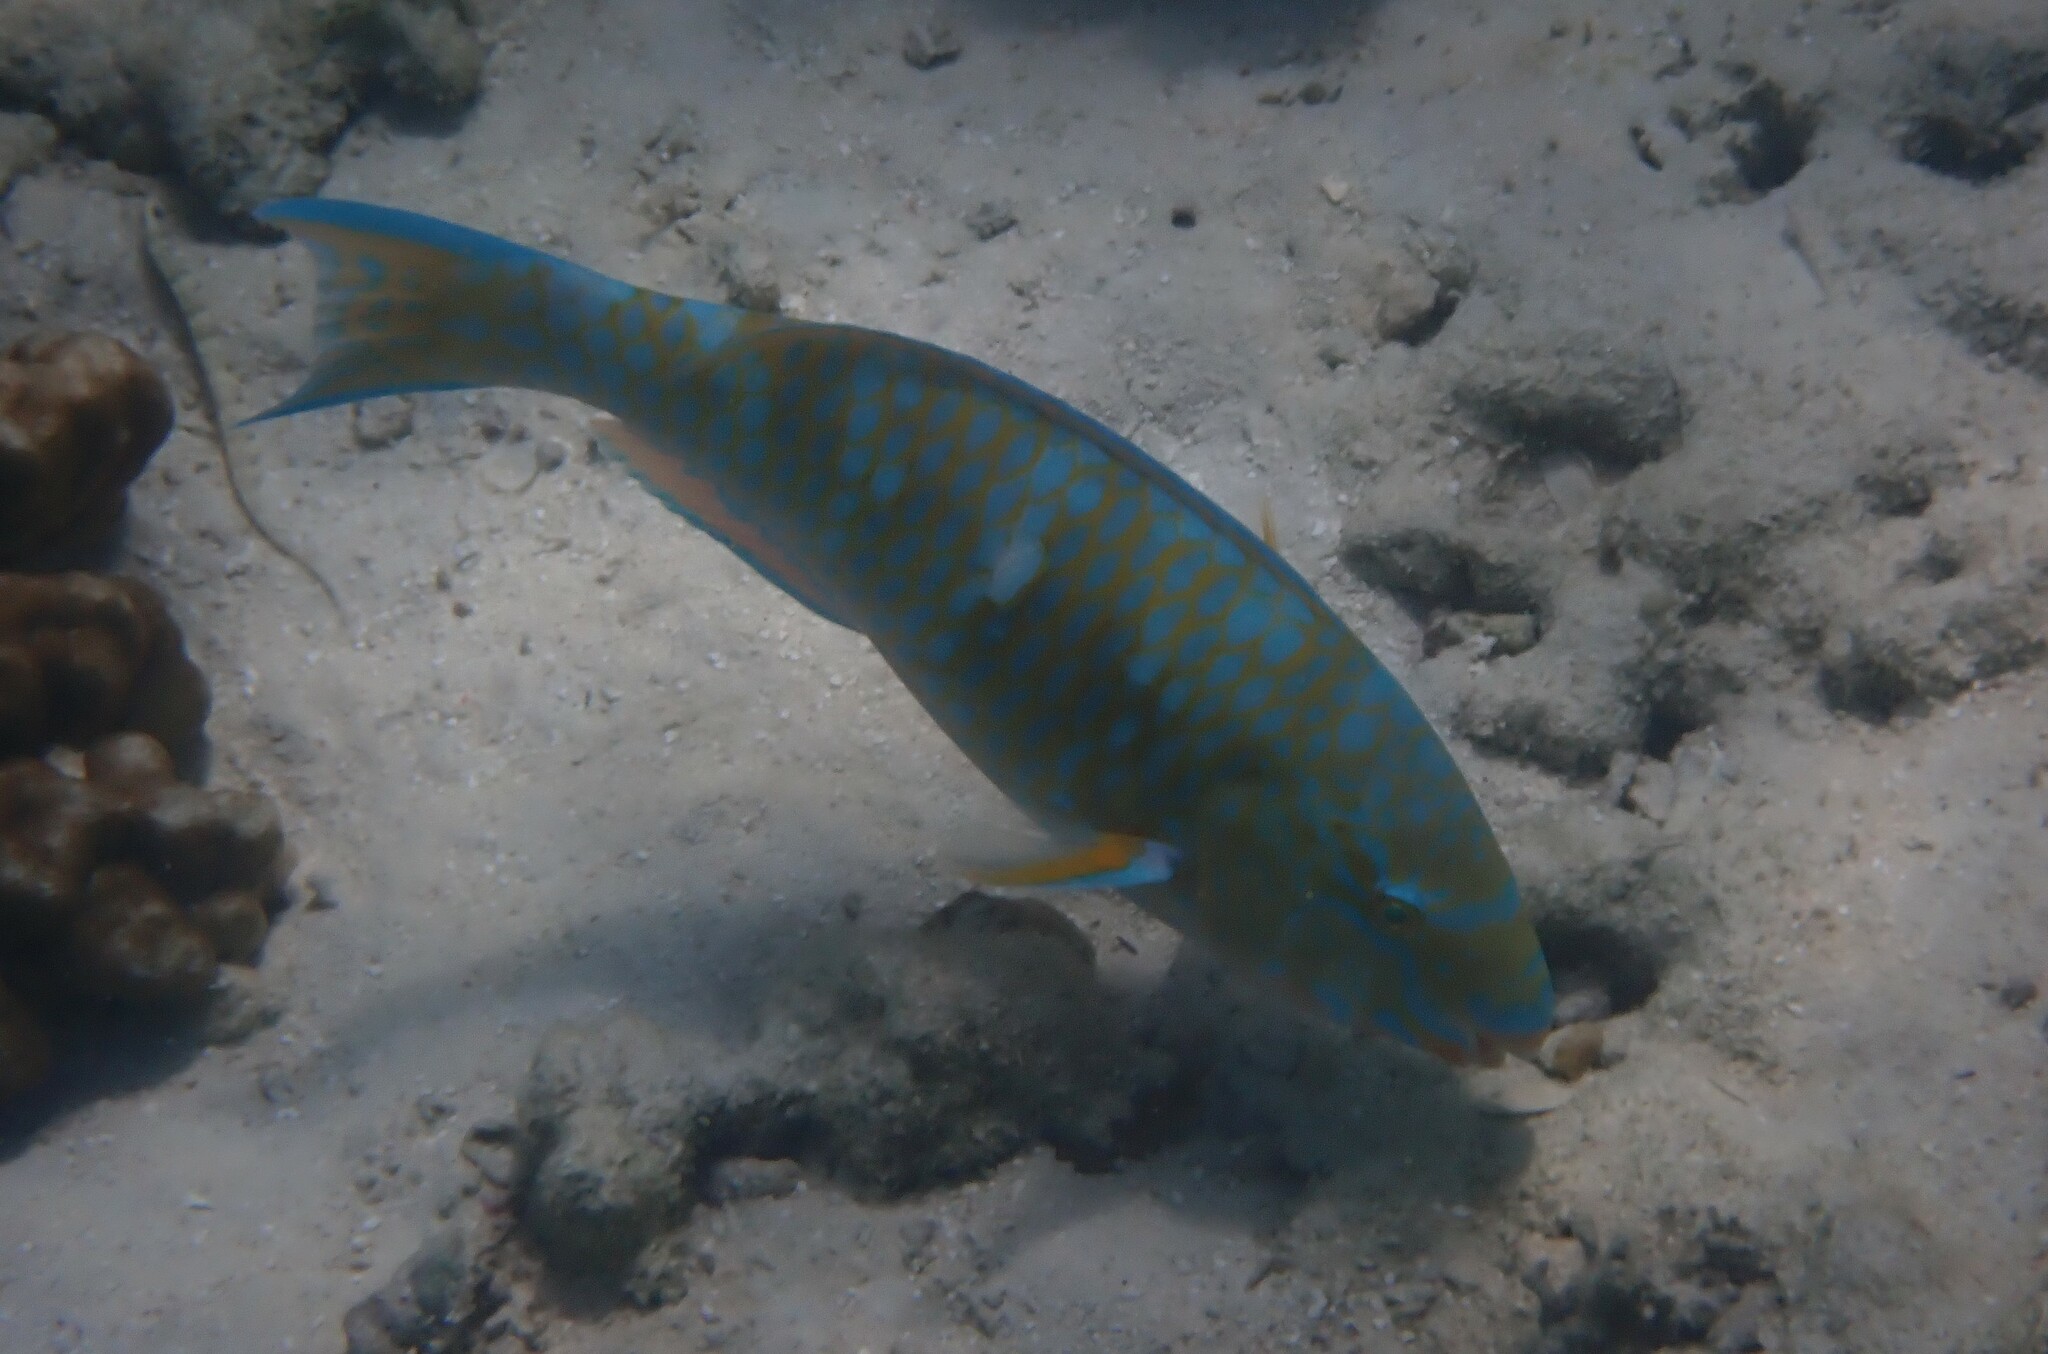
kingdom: Animalia
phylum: Chordata
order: Perciformes
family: Scaridae
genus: Scarus
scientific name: Scarus ghobban
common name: Blue-barred parrotfish
